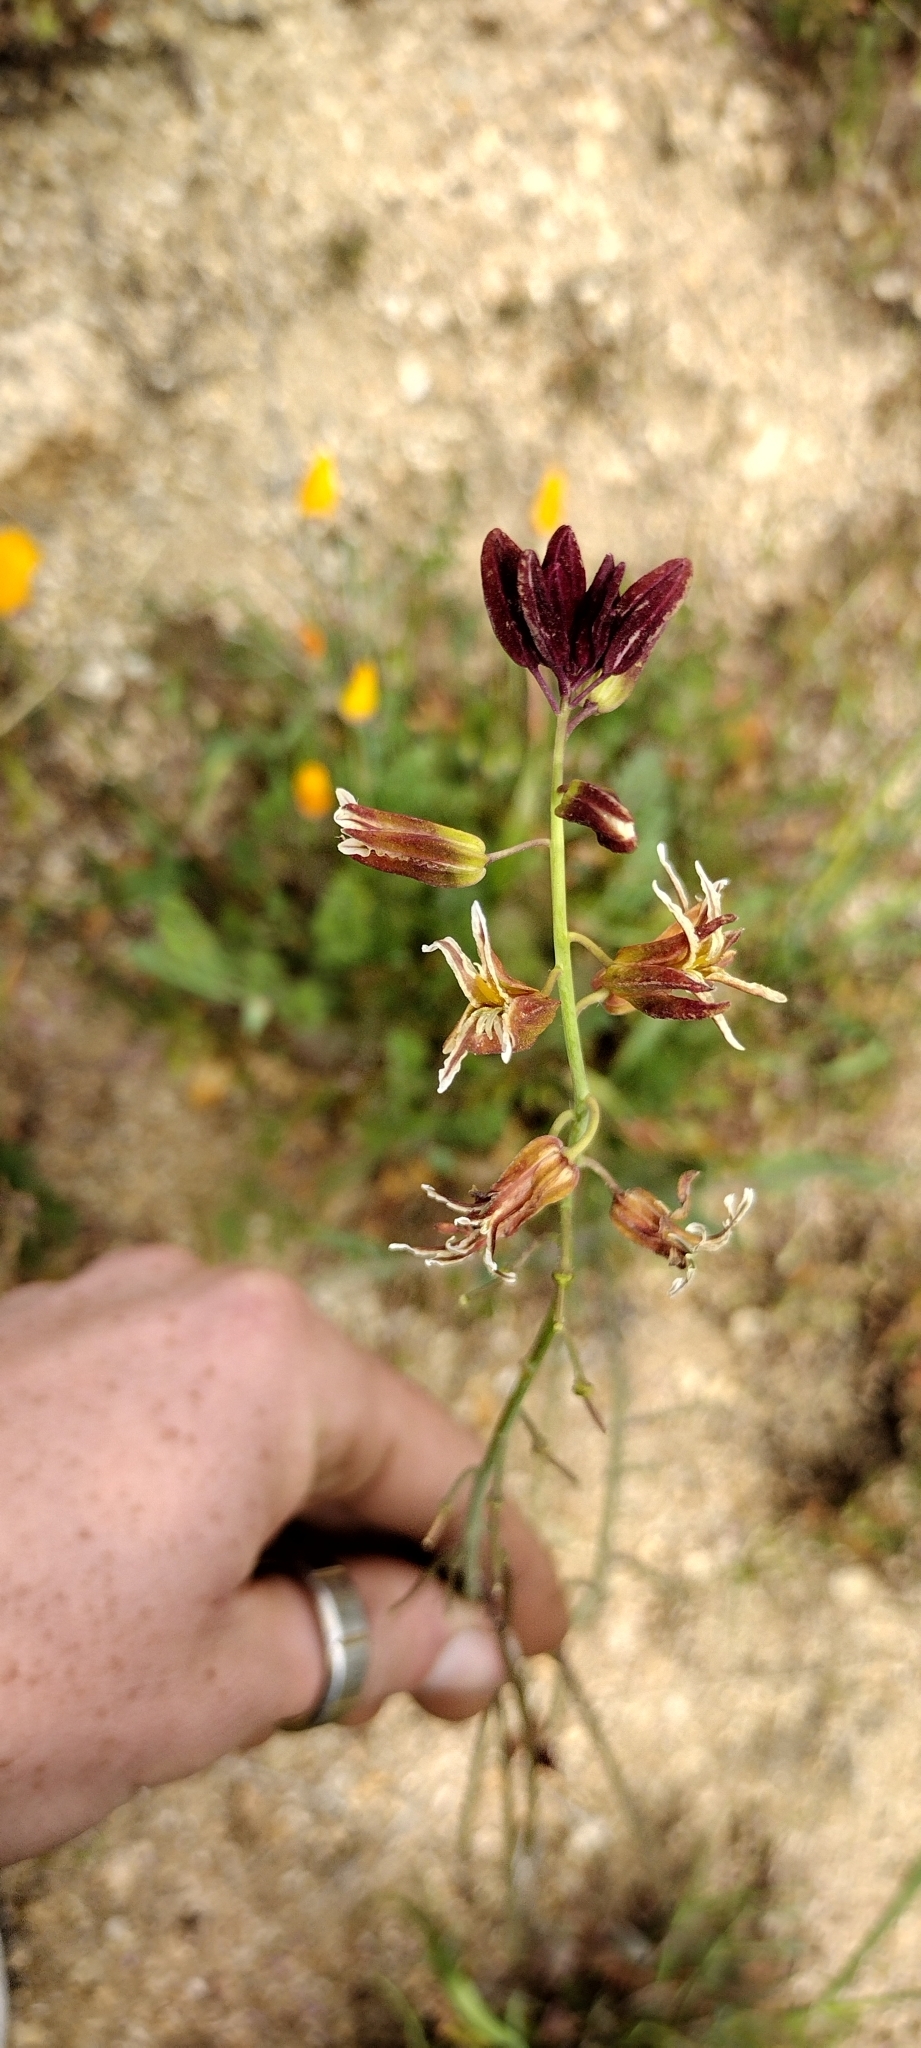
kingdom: Plantae
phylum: Tracheophyta
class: Magnoliopsida
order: Brassicales
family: Brassicaceae
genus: Streptanthus
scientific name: Streptanthus coulteri
